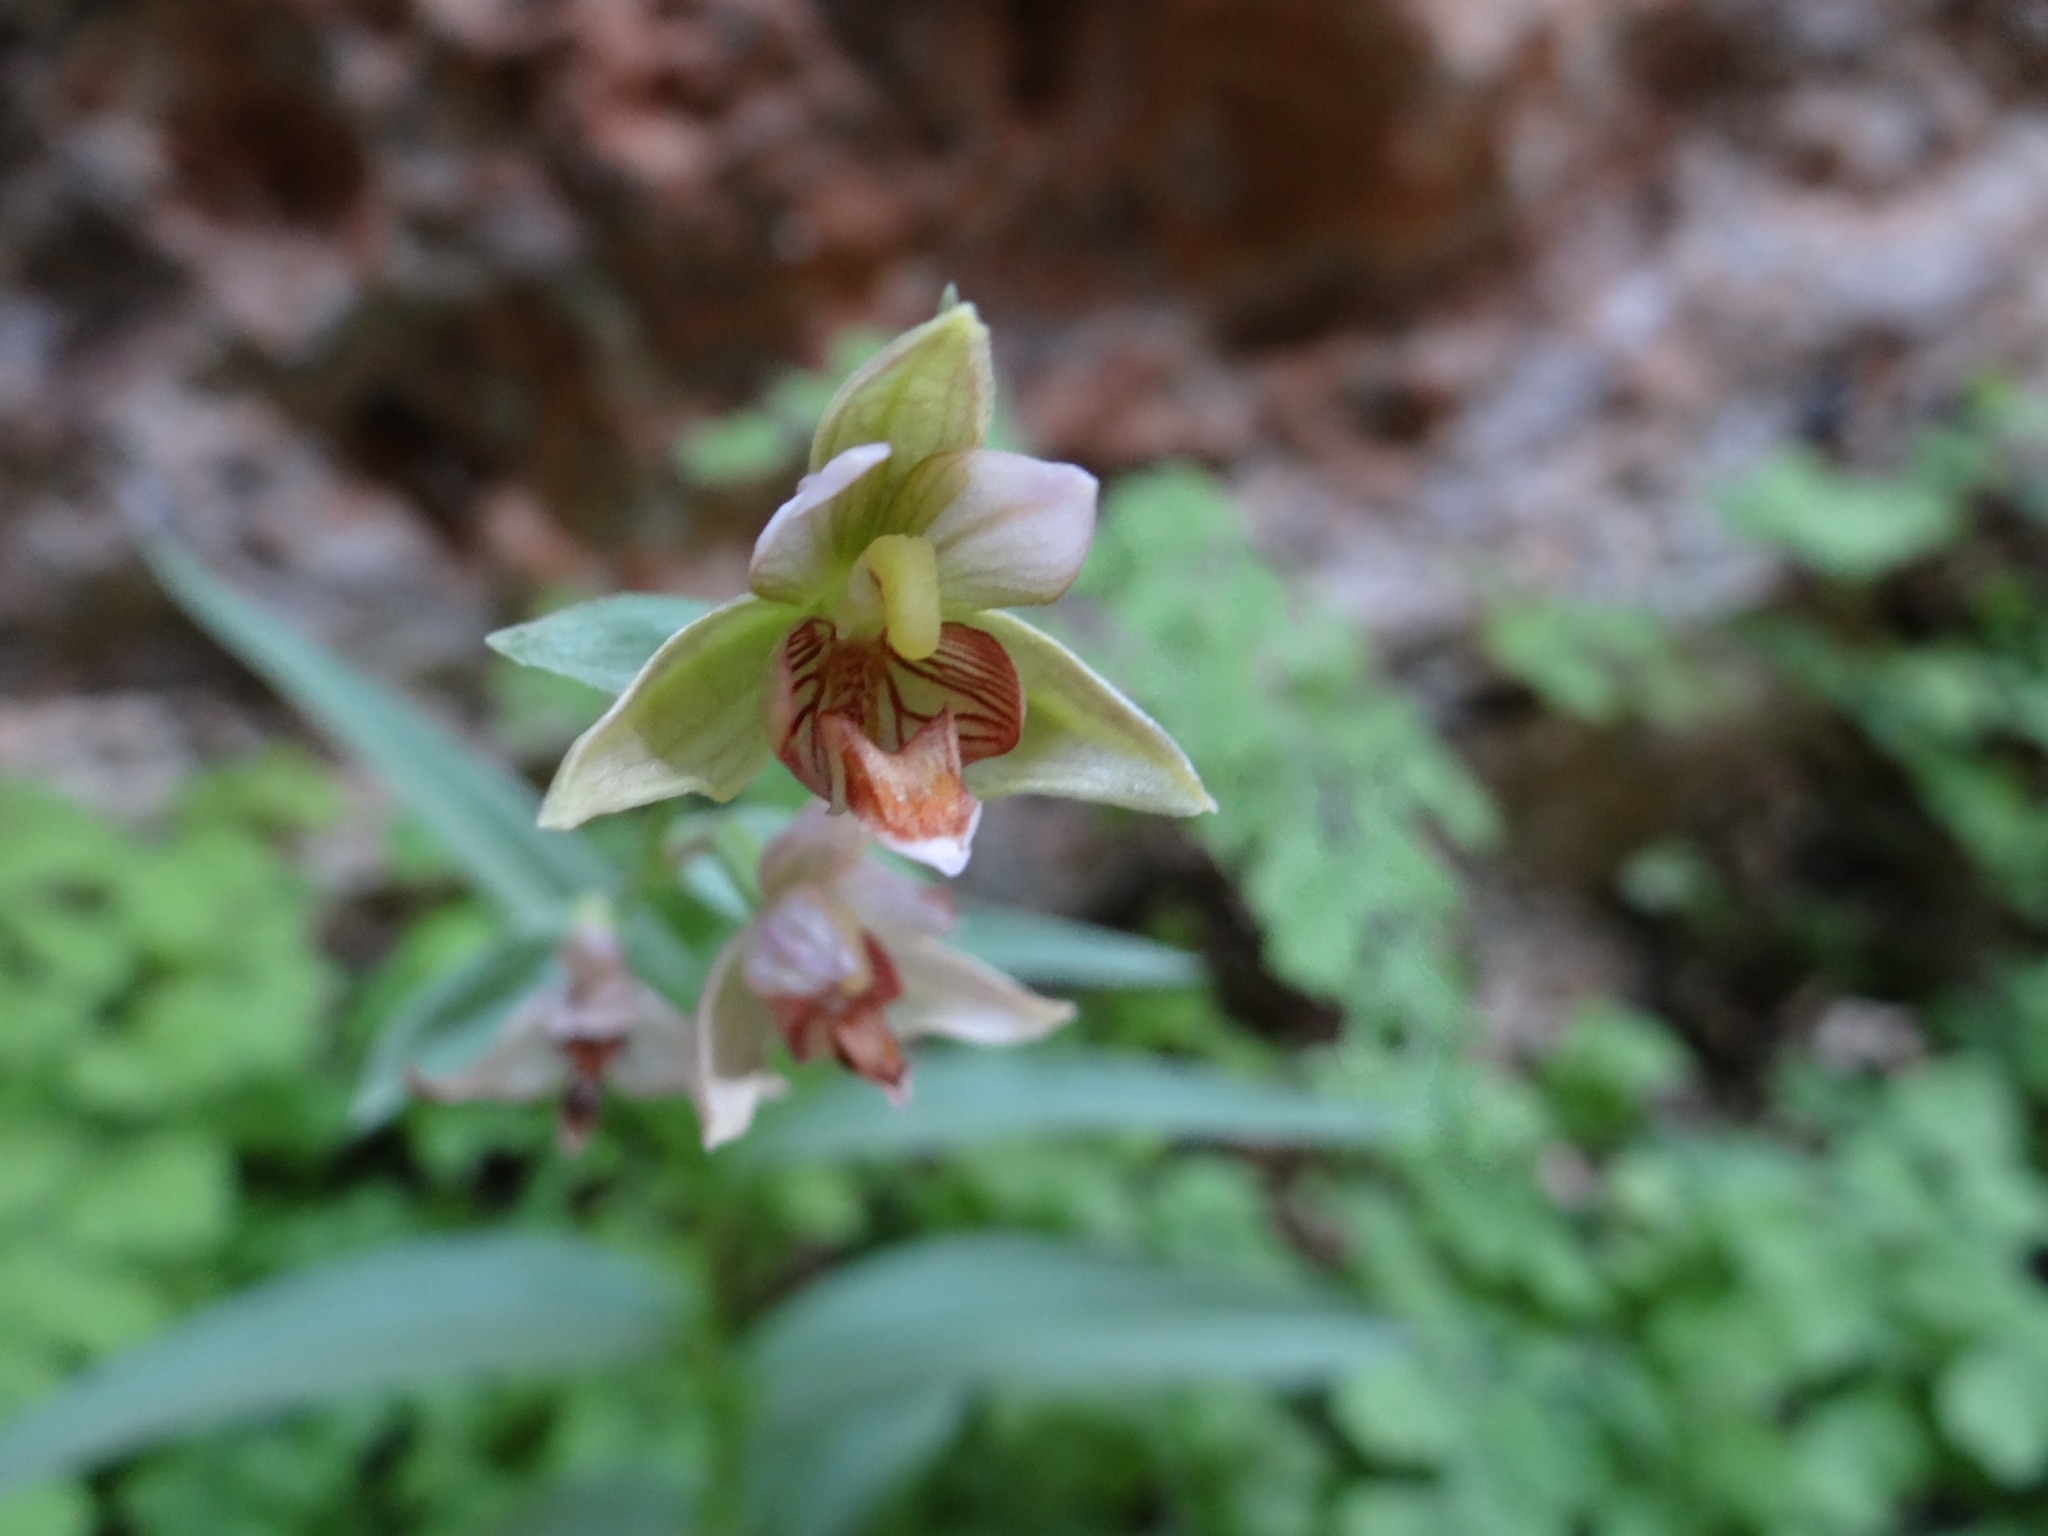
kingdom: Plantae
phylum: Tracheophyta
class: Liliopsida
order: Asparagales
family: Orchidaceae
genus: Epipactis
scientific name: Epipactis gigantea
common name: Chatterbox
